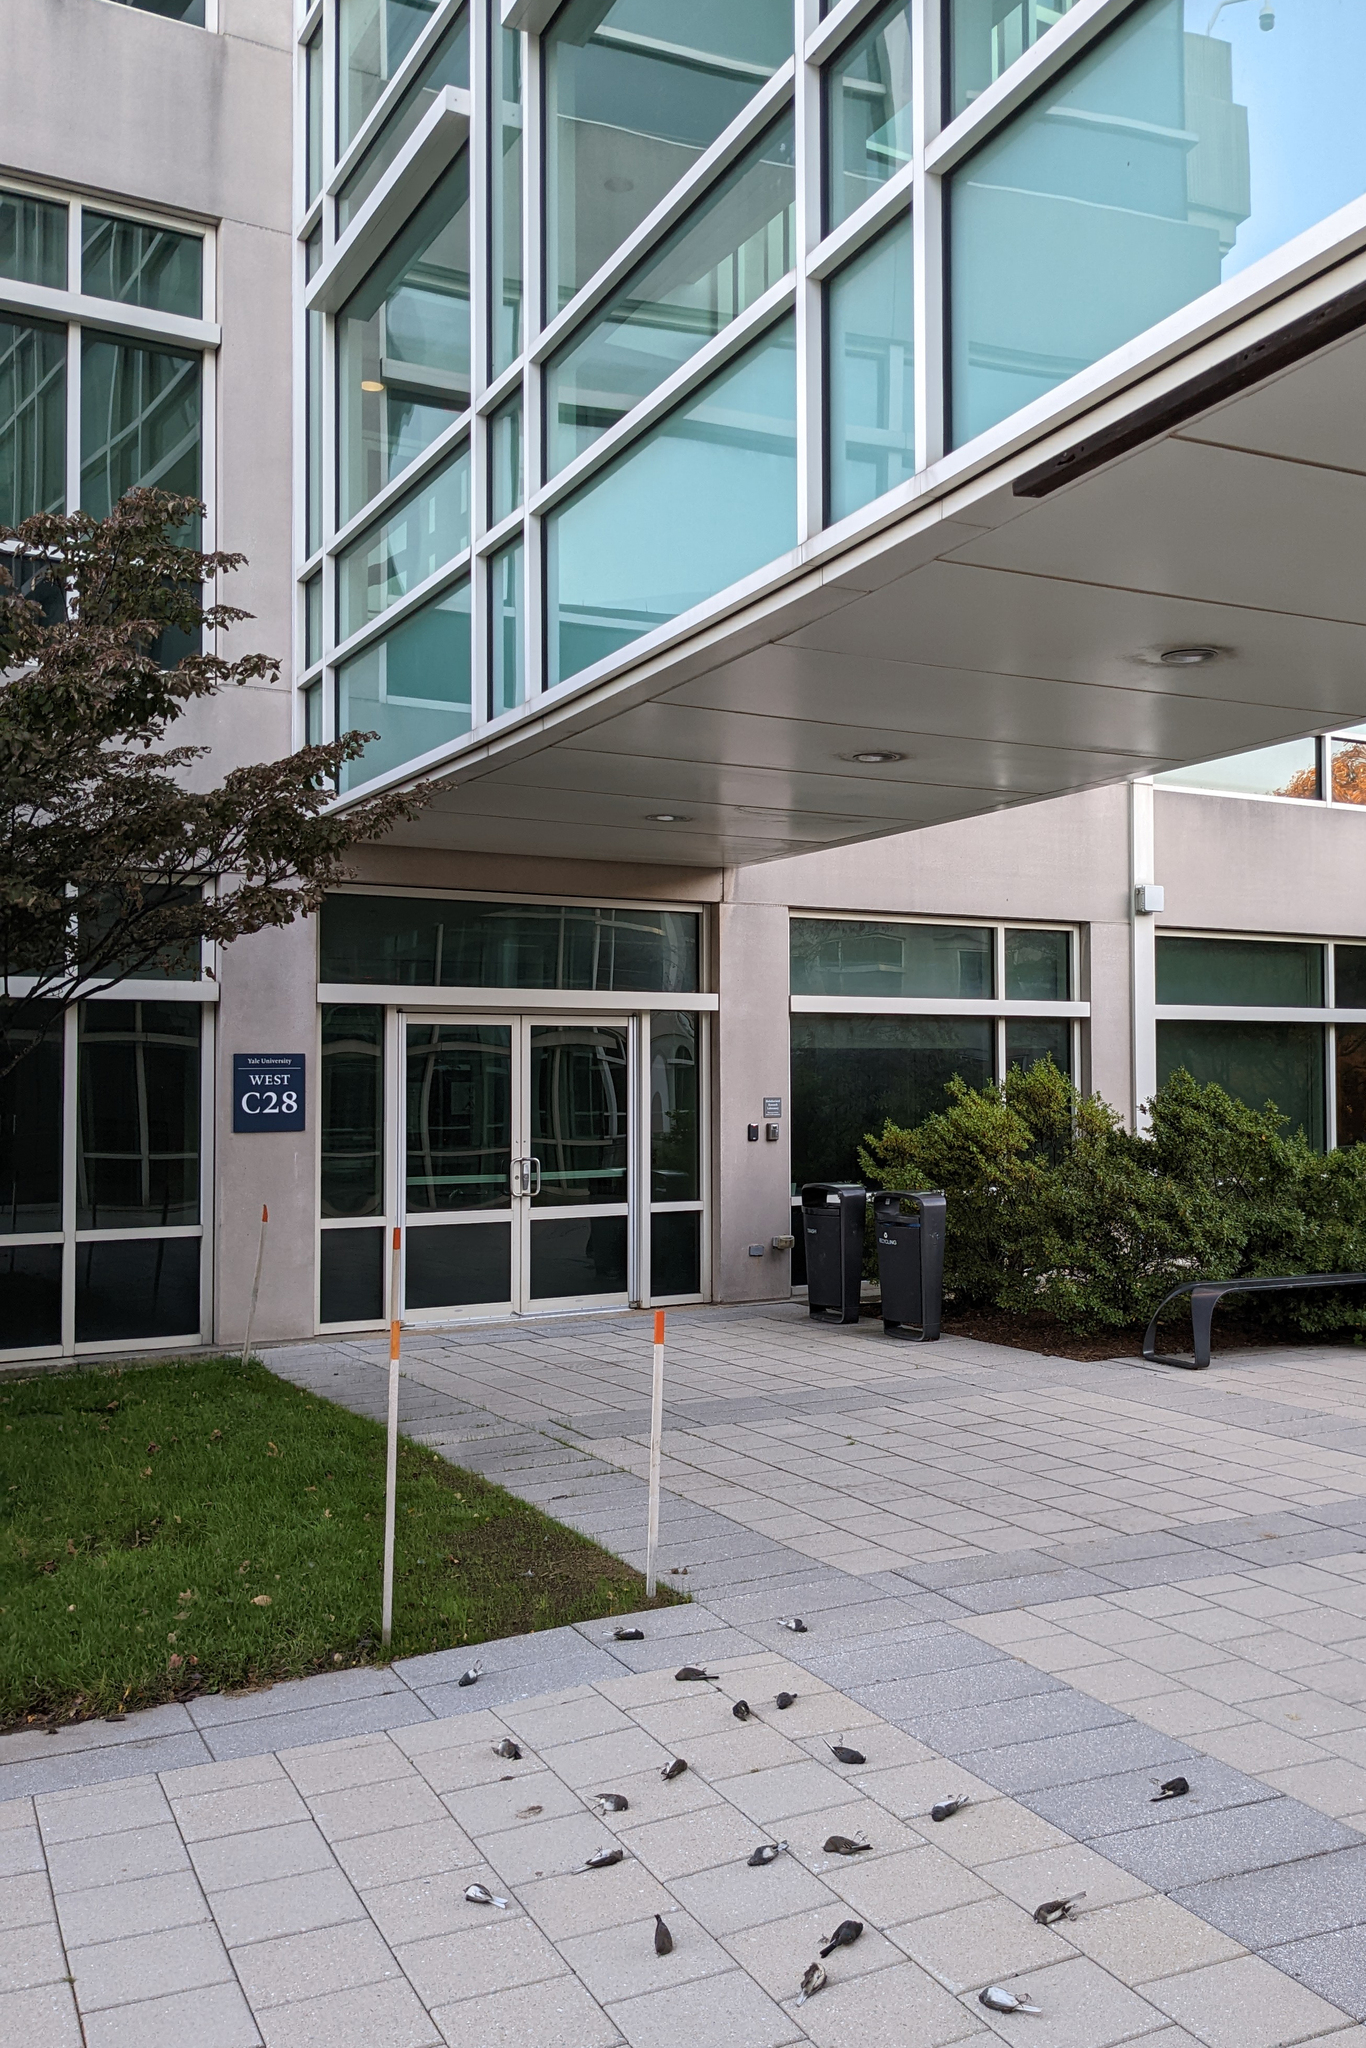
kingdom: Animalia
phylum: Chordata
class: Aves
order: Passeriformes
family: Passerellidae
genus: Junco
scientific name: Junco hyemalis
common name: Dark-eyed junco
